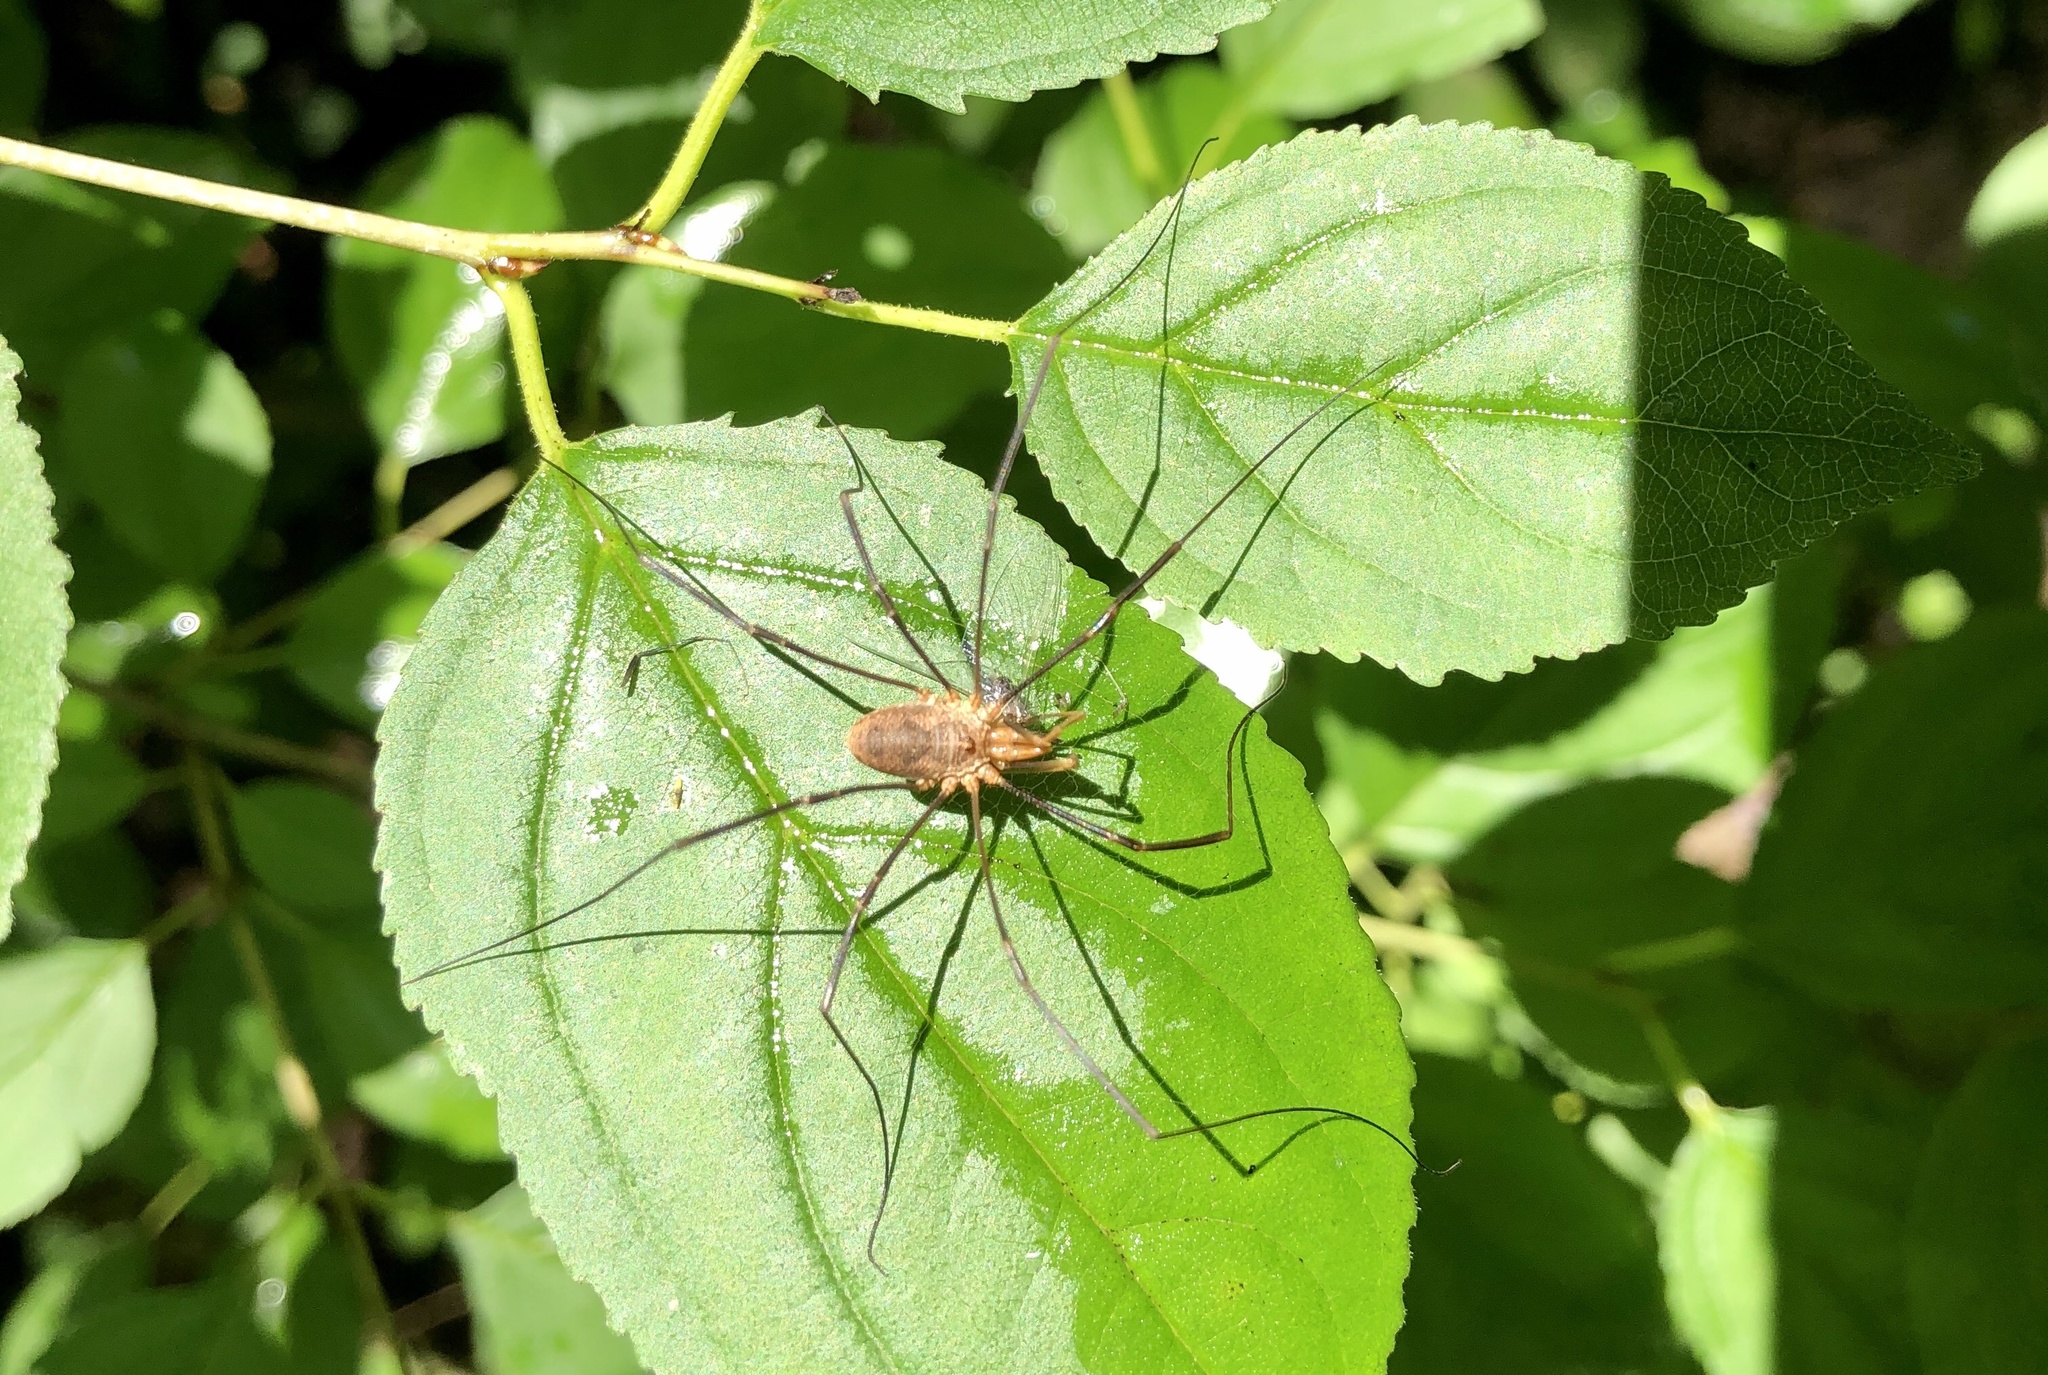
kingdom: Animalia
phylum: Arthropoda
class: Arachnida
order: Opiliones
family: Phalangiidae
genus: Phalangium
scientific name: Phalangium opilio
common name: Daddy longleg
